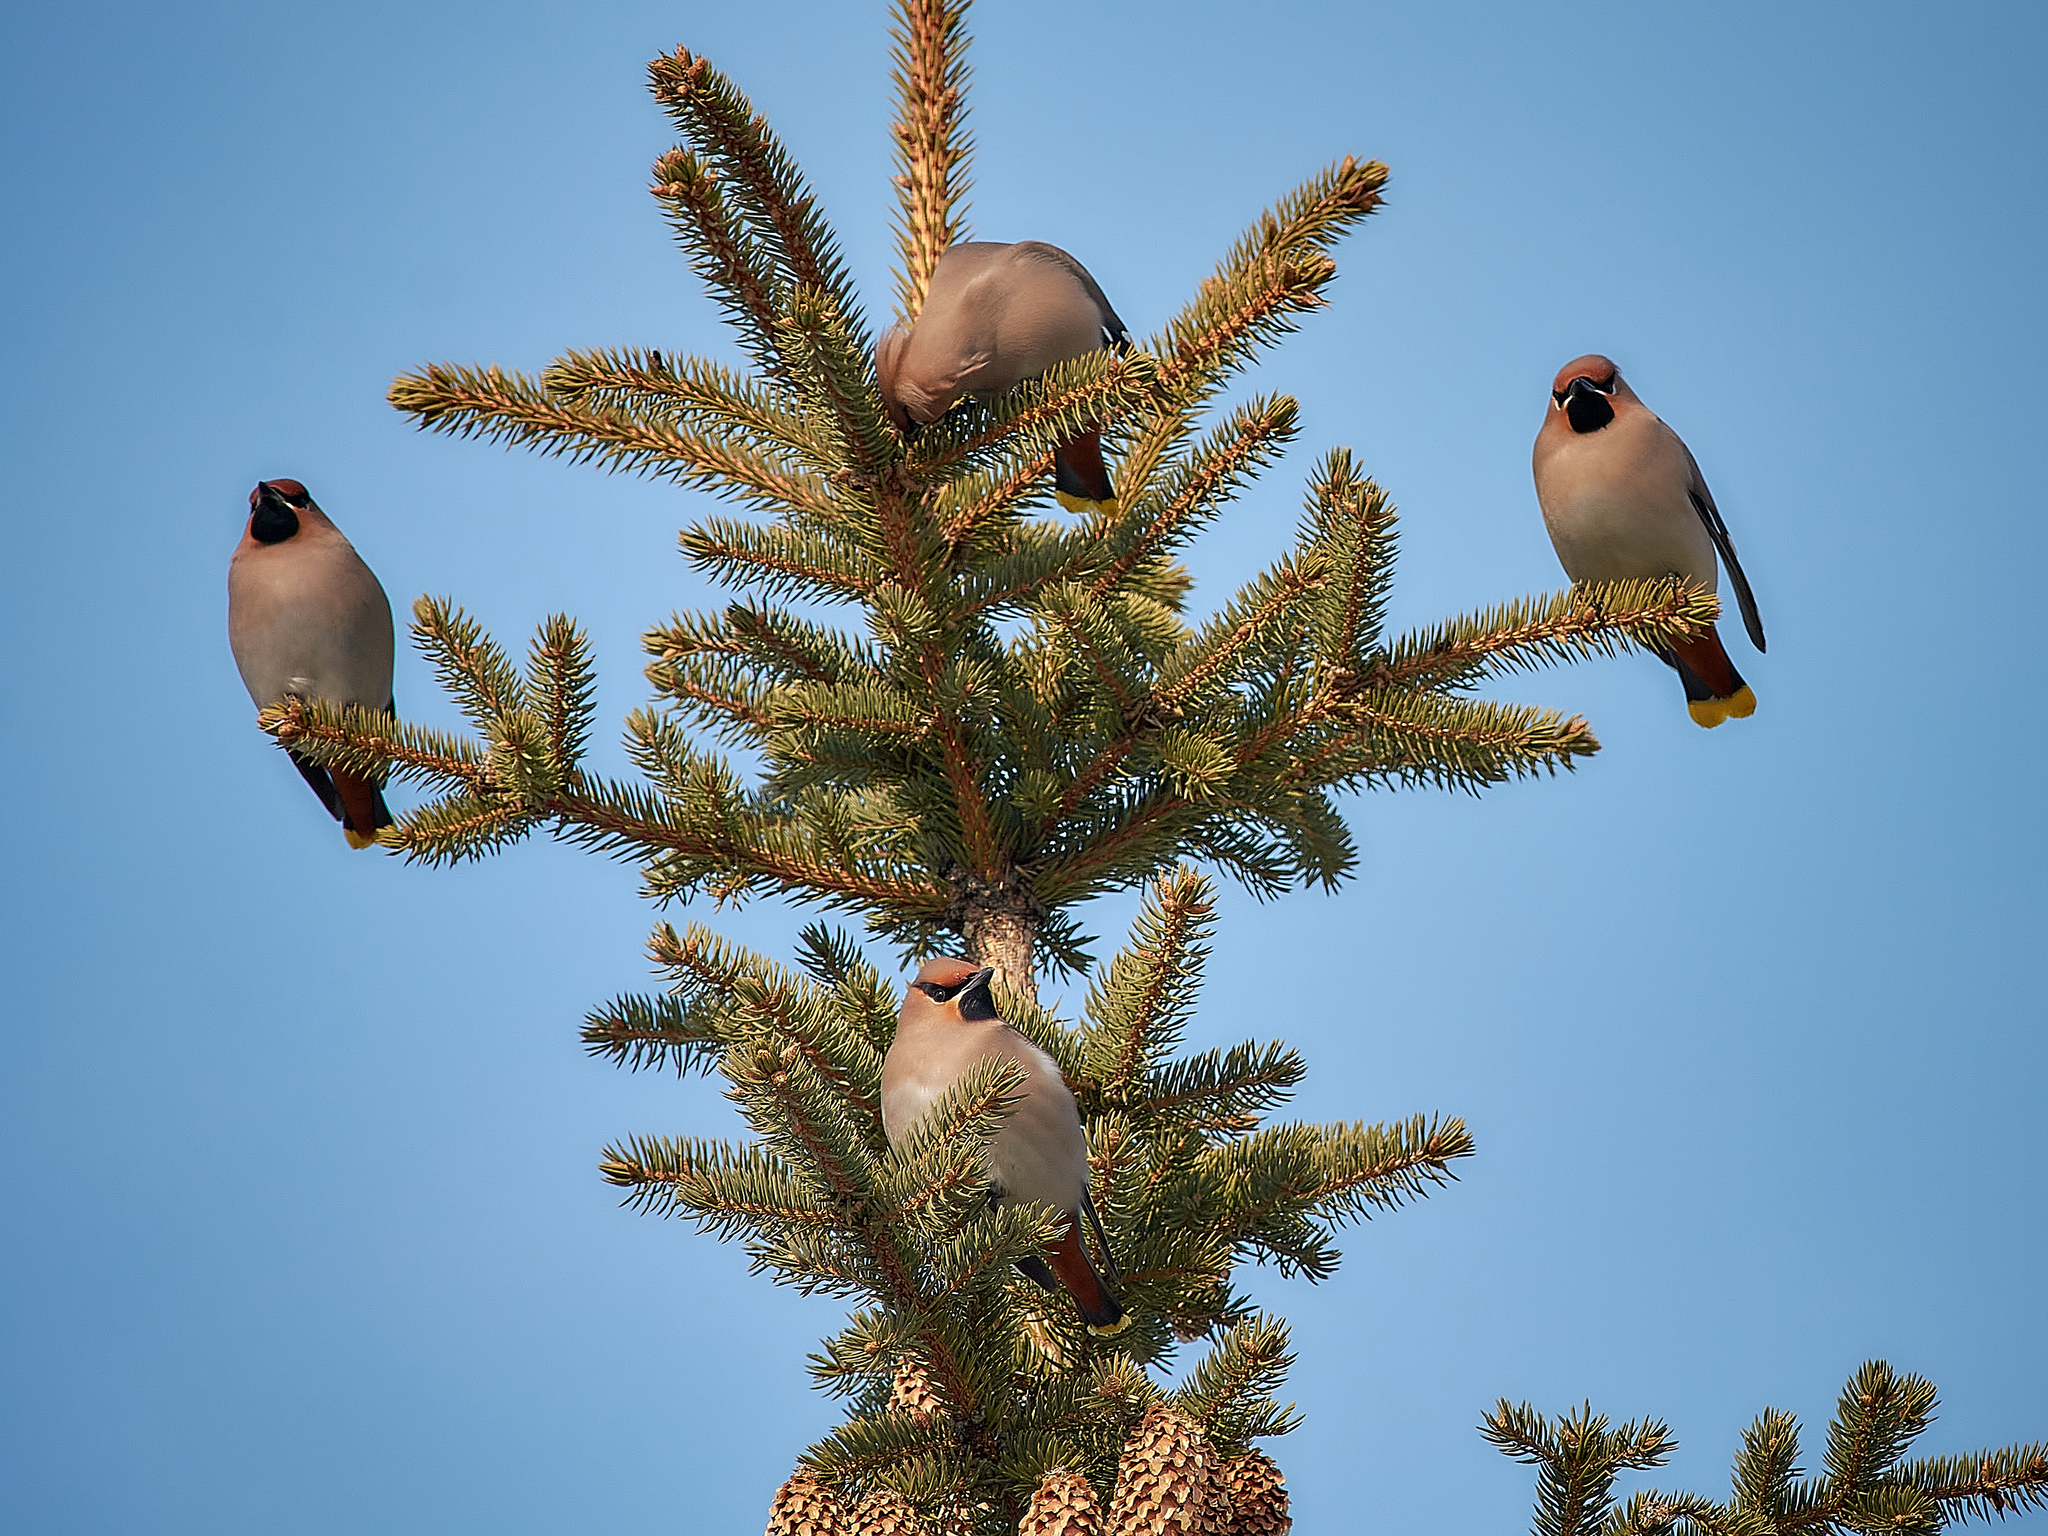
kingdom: Animalia
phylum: Chordata
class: Aves
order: Passeriformes
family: Bombycillidae
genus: Bombycilla
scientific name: Bombycilla garrulus
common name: Bohemian waxwing
